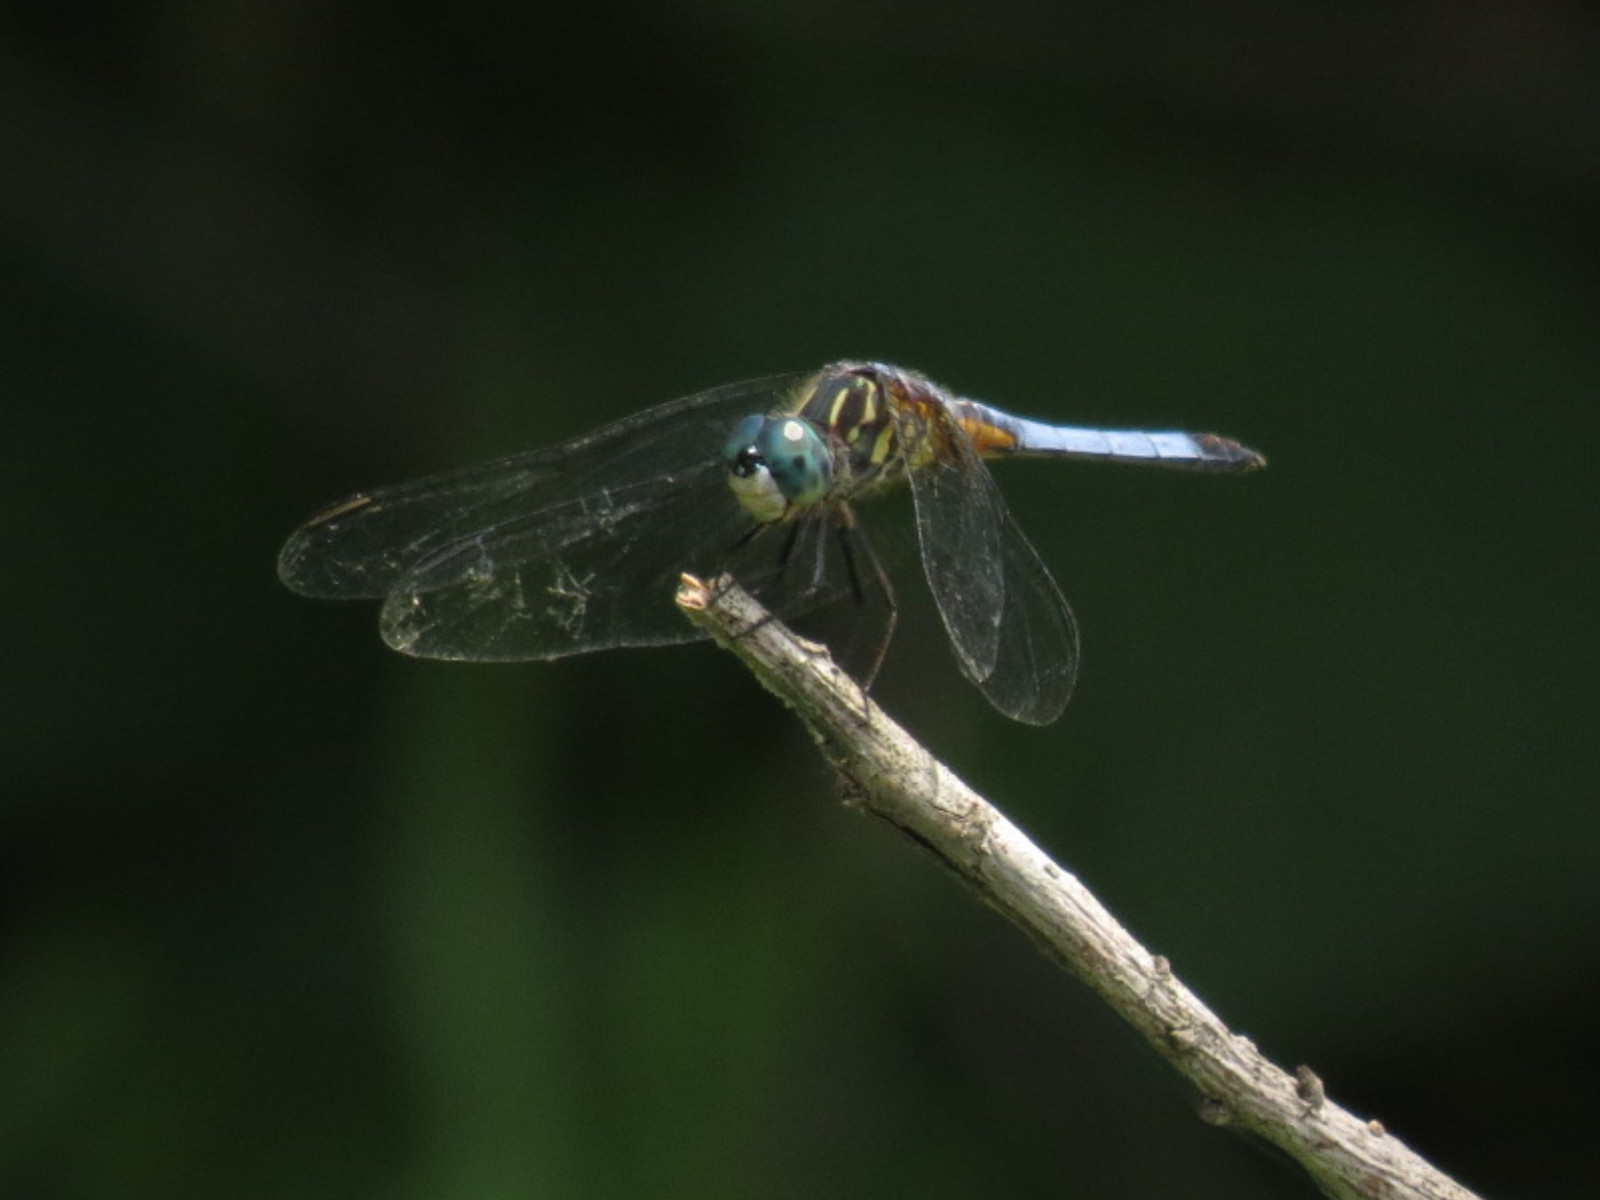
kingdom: Animalia
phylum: Arthropoda
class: Insecta
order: Odonata
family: Libellulidae
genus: Pachydiplax
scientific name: Pachydiplax longipennis
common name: Blue dasher
